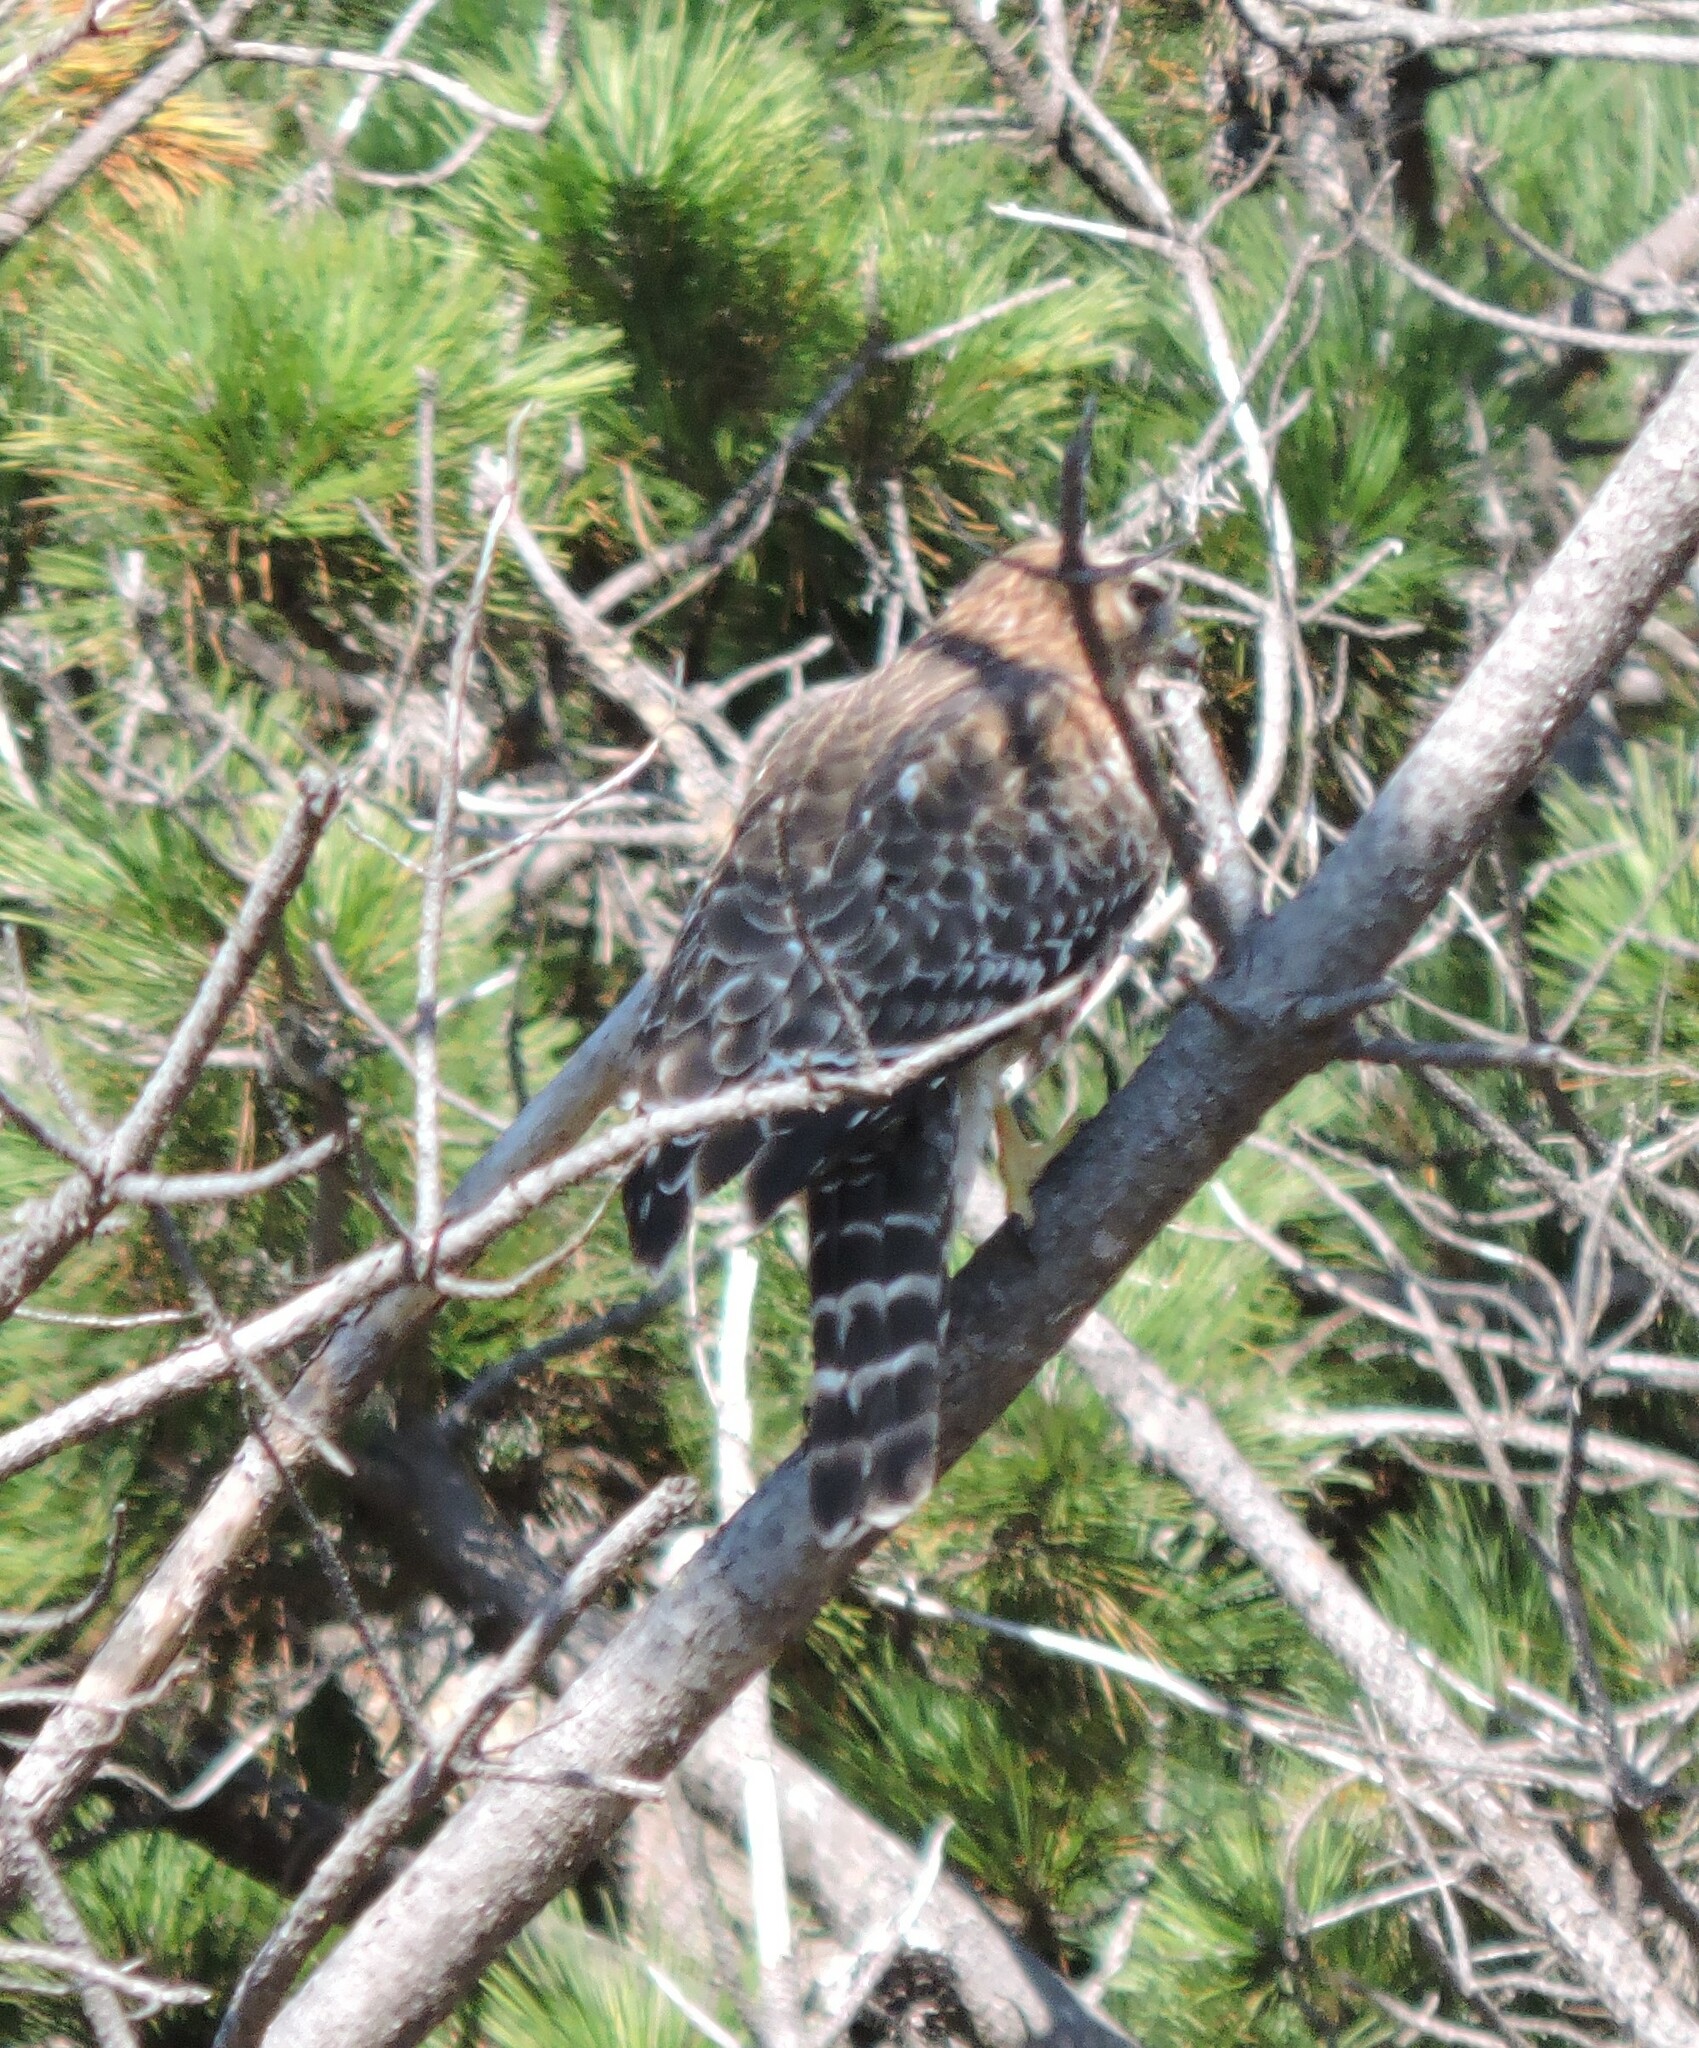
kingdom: Animalia
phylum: Chordata
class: Aves
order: Accipitriformes
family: Accipitridae
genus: Buteo
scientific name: Buteo lineatus
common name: Red-shouldered hawk
